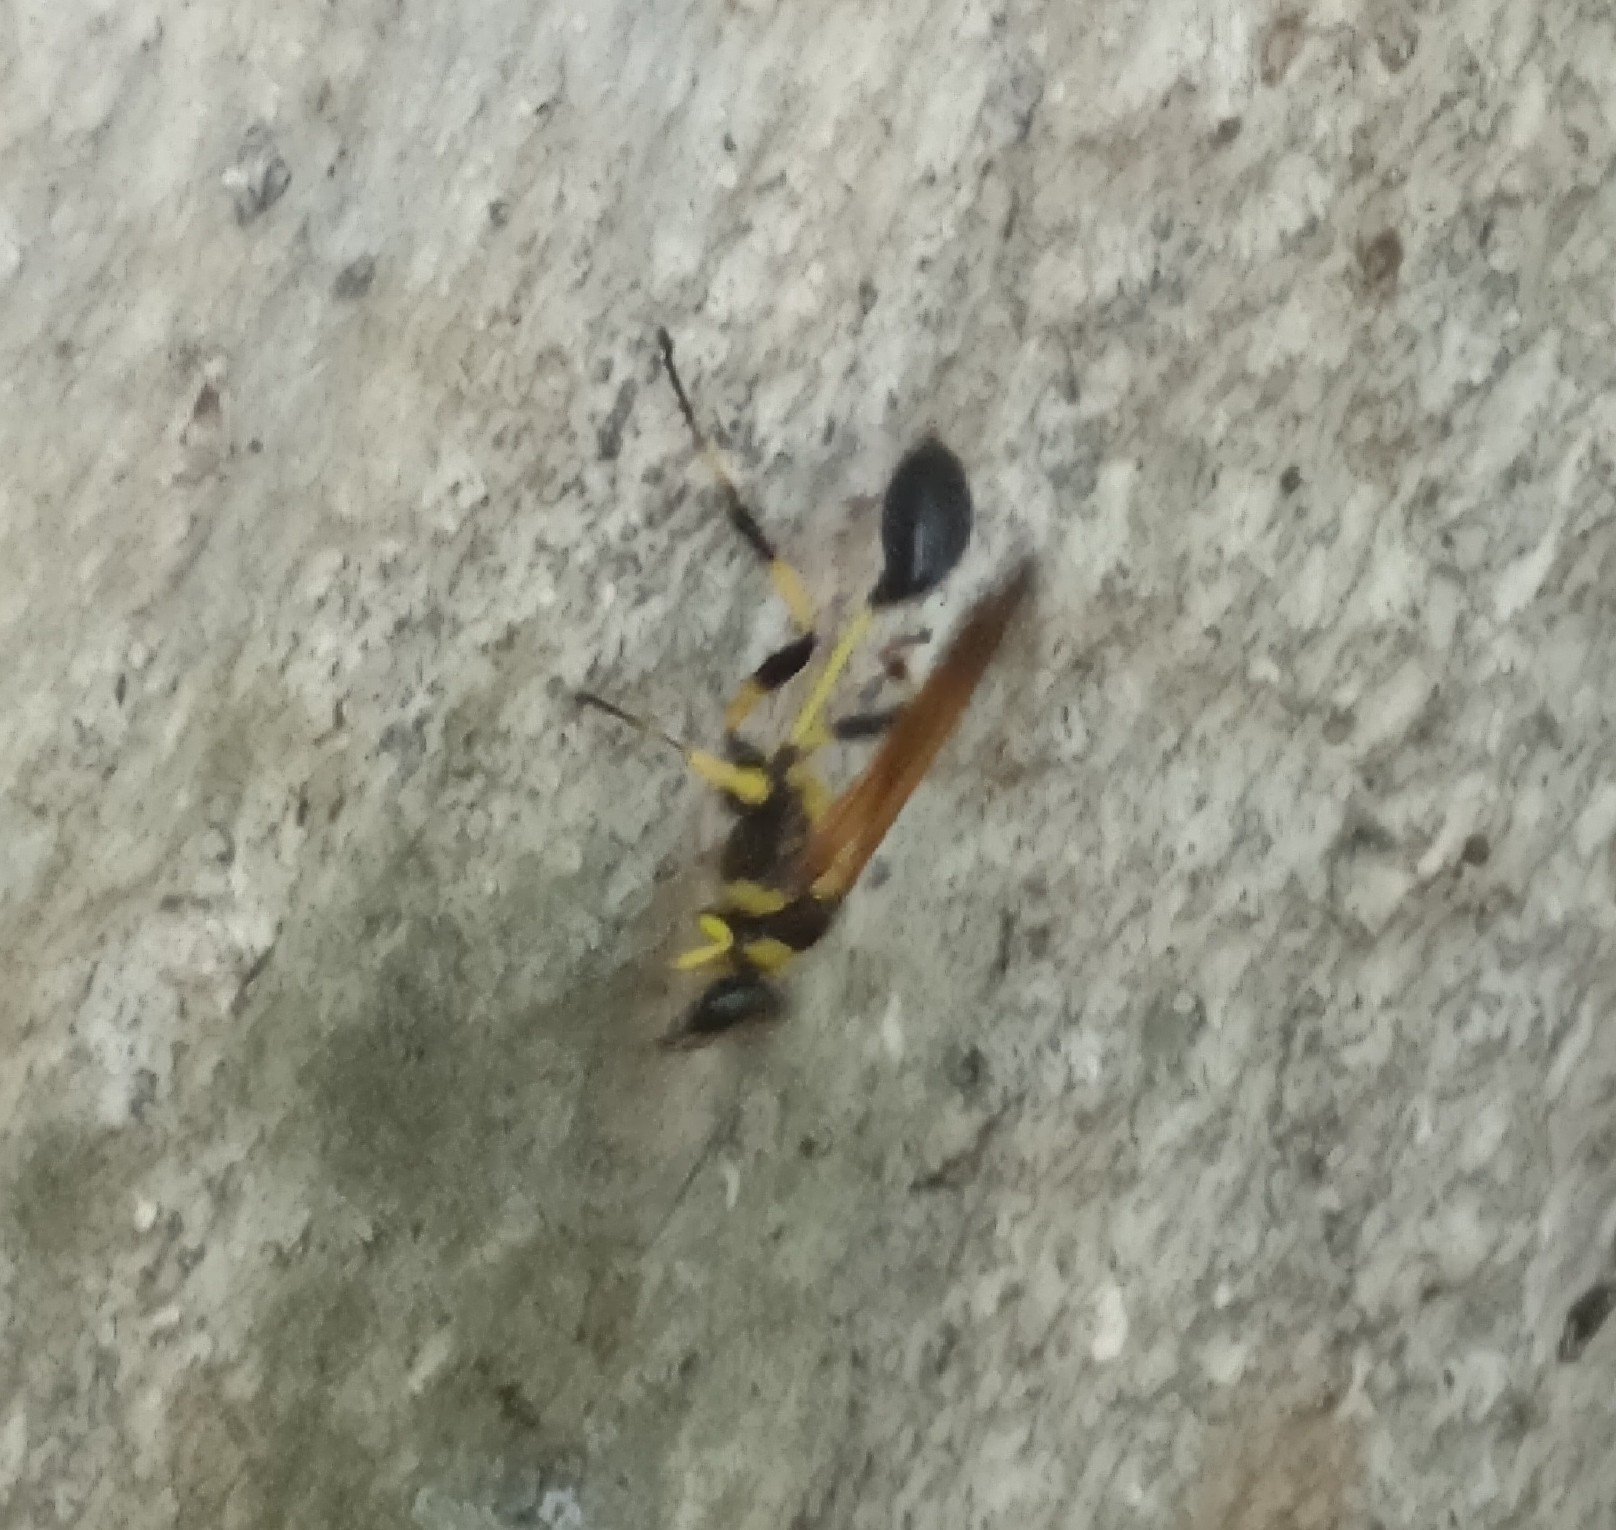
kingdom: Animalia
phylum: Arthropoda
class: Insecta
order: Hymenoptera
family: Sphecidae
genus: Sceliphron
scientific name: Sceliphron madraspatanum
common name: Mud dauber
